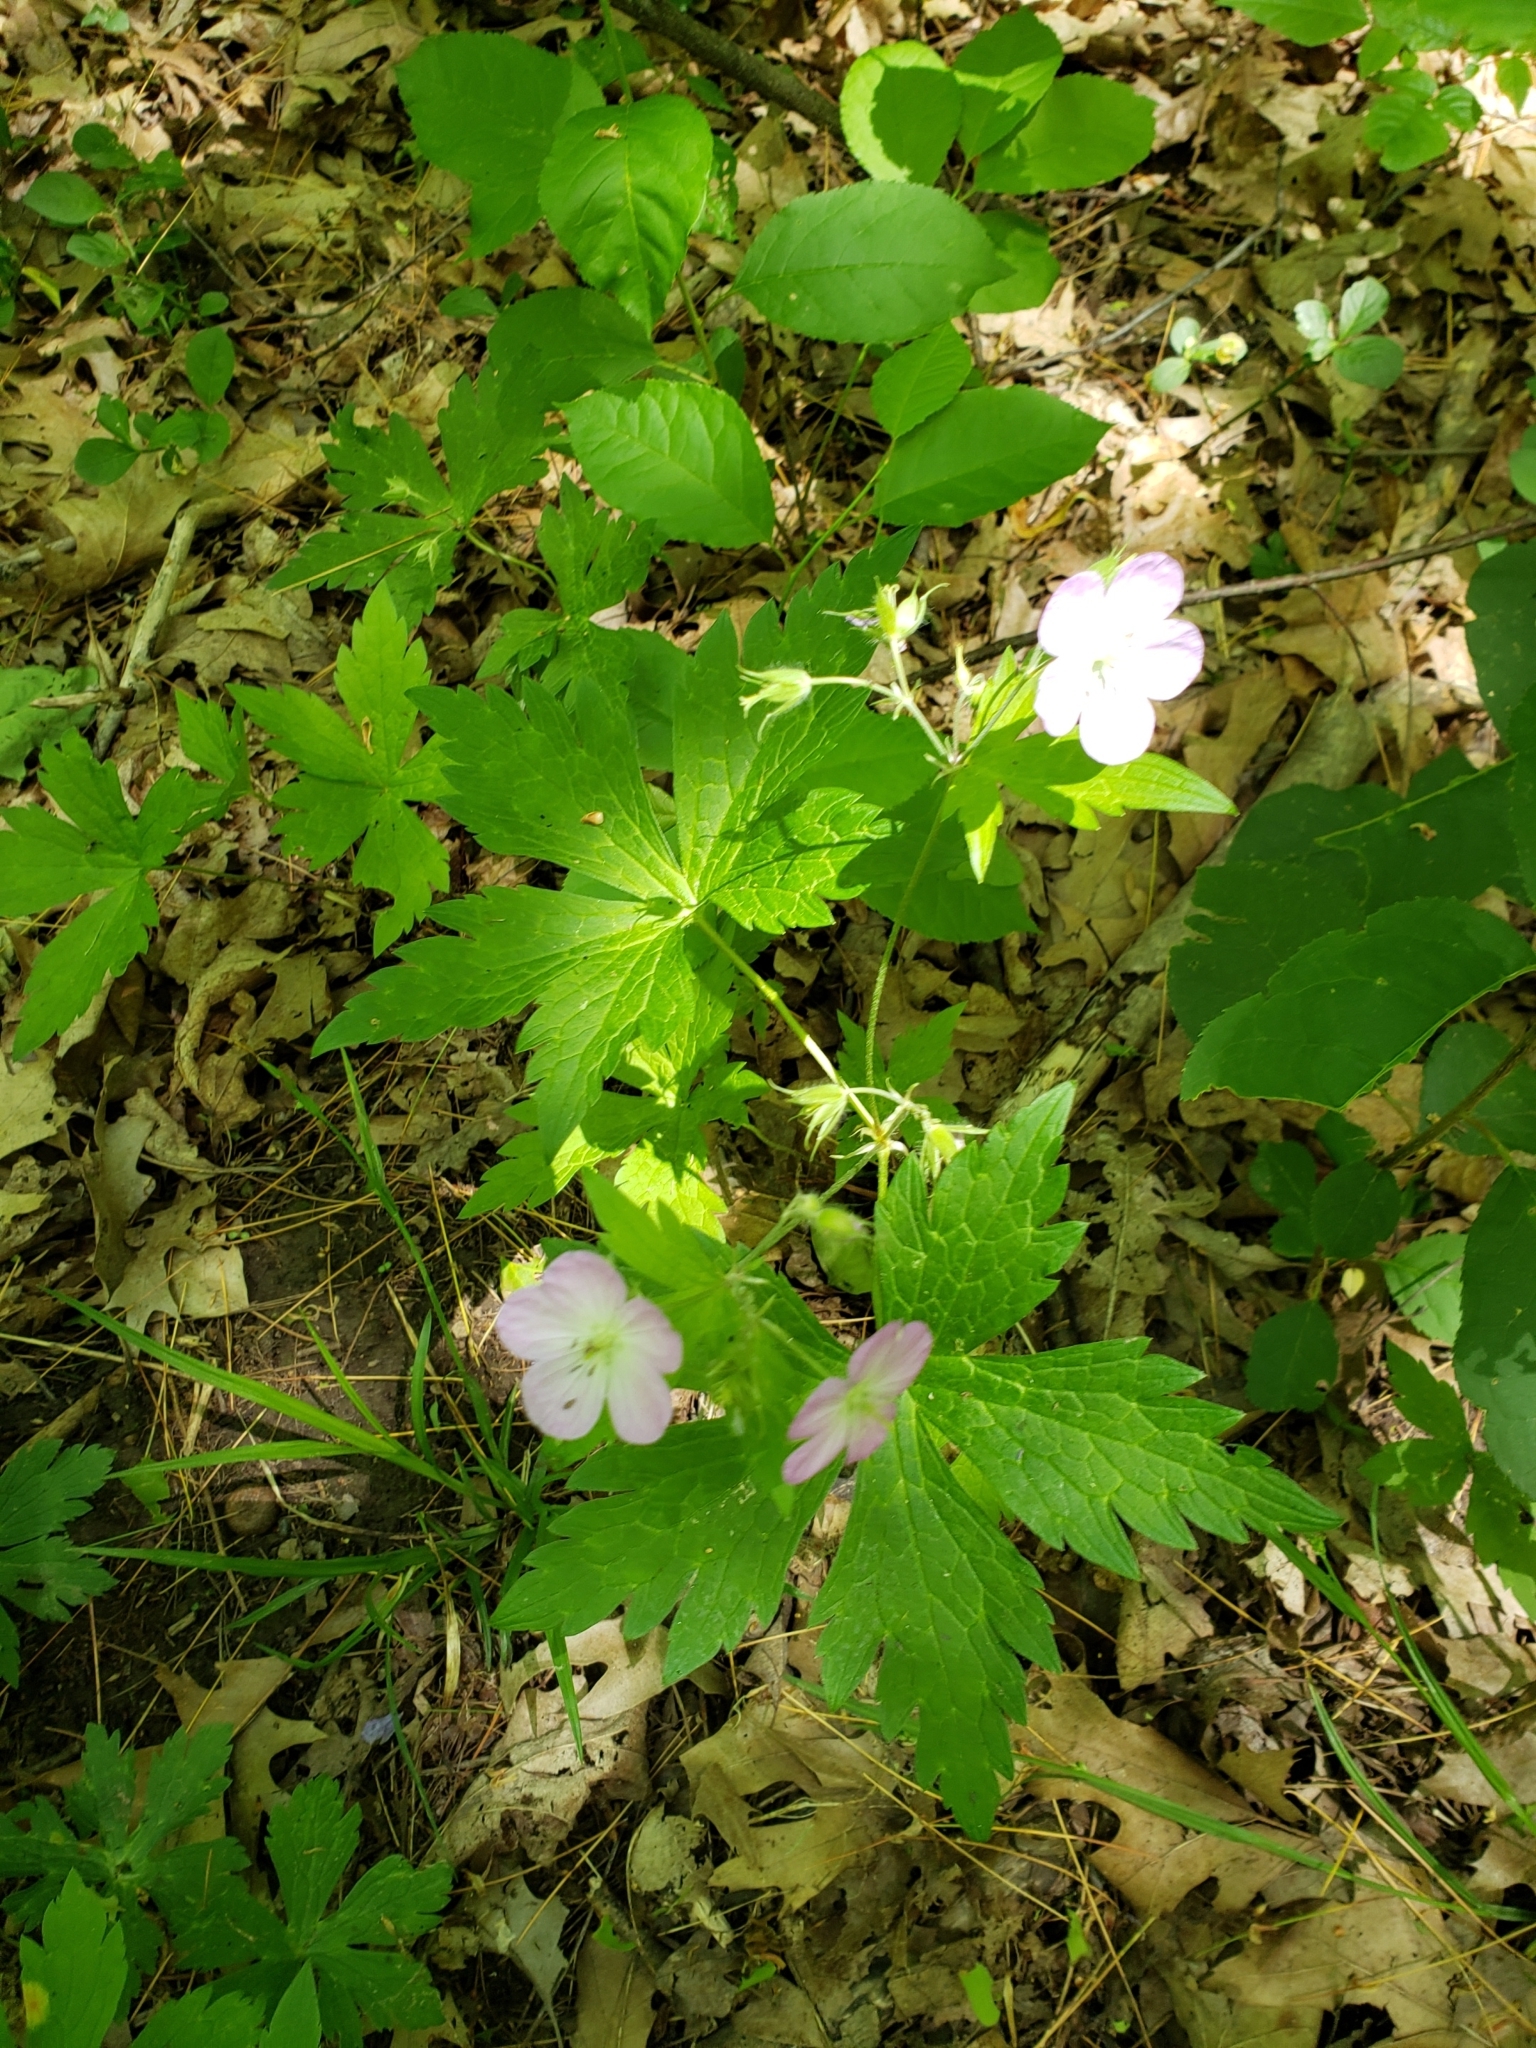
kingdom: Plantae
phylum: Tracheophyta
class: Magnoliopsida
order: Geraniales
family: Geraniaceae
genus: Geranium
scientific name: Geranium maculatum
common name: Spotted geranium
